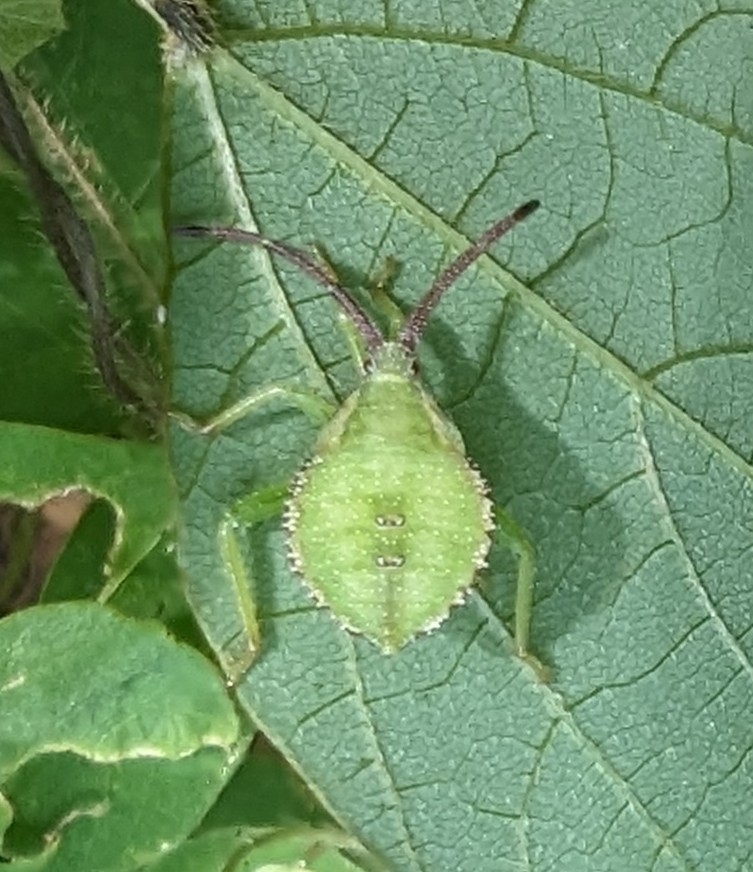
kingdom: Animalia
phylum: Arthropoda
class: Insecta
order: Hemiptera
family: Coreidae
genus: Piezogaster
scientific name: Piezogaster calcarator
